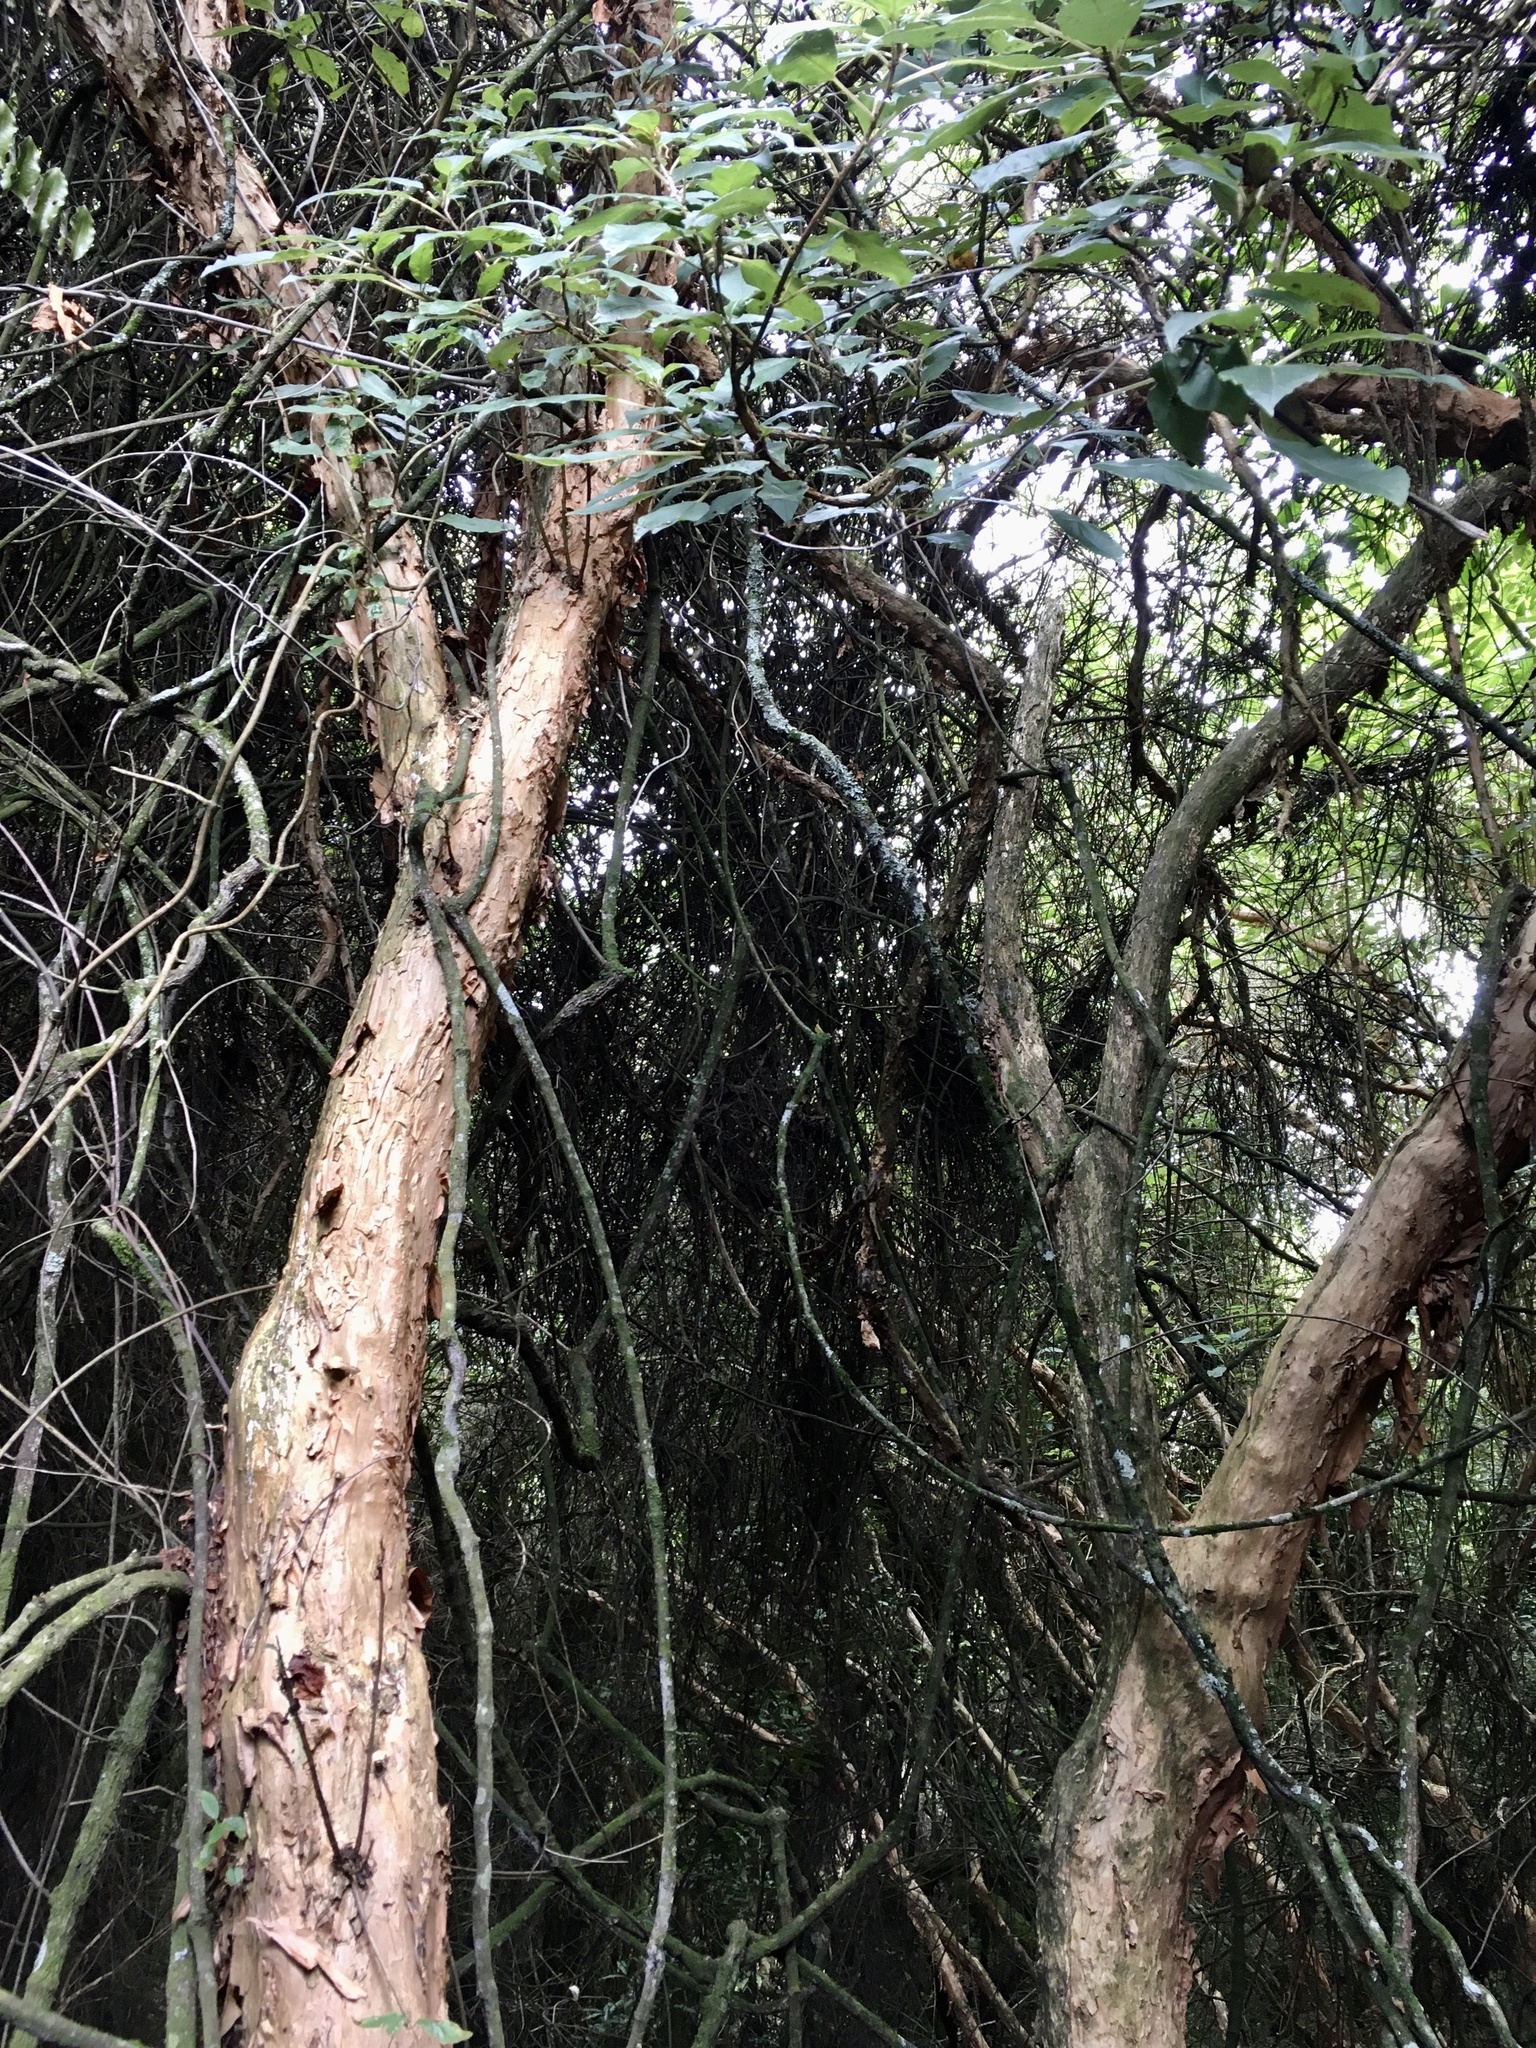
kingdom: Plantae
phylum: Tracheophyta
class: Magnoliopsida
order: Myrtales
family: Onagraceae
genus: Fuchsia
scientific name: Fuchsia excorticata
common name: Tree fuchsia
